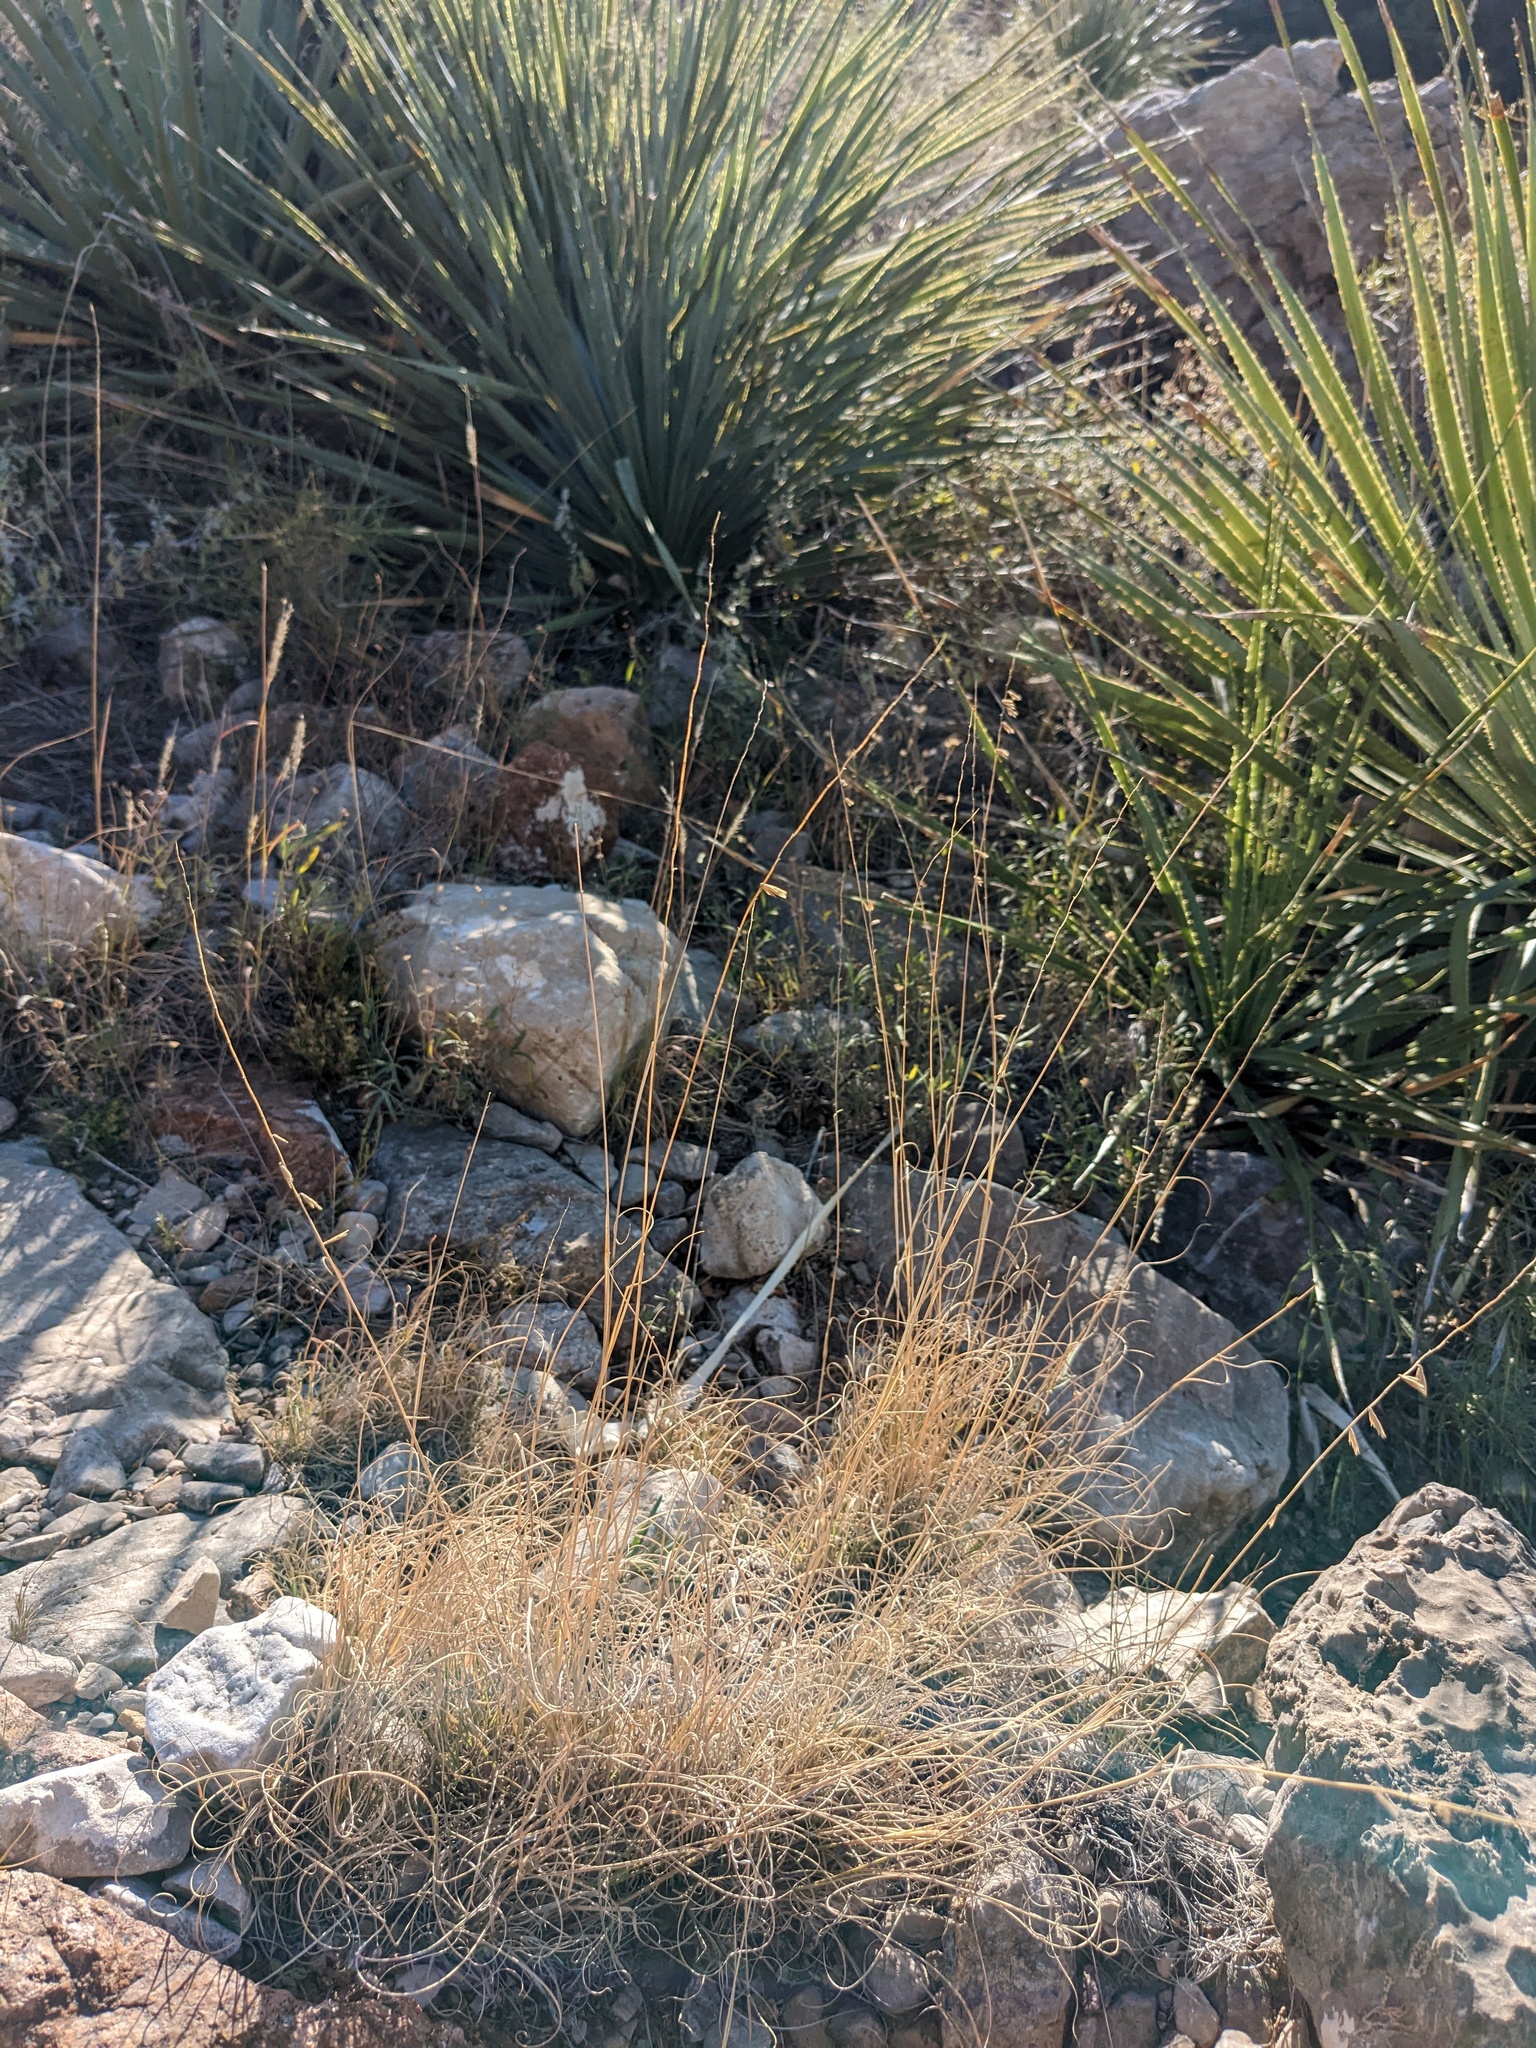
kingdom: Plantae
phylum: Tracheophyta
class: Liliopsida
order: Poales
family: Poaceae
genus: Bouteloua
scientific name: Bouteloua curtipendula
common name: Side-oats grama
